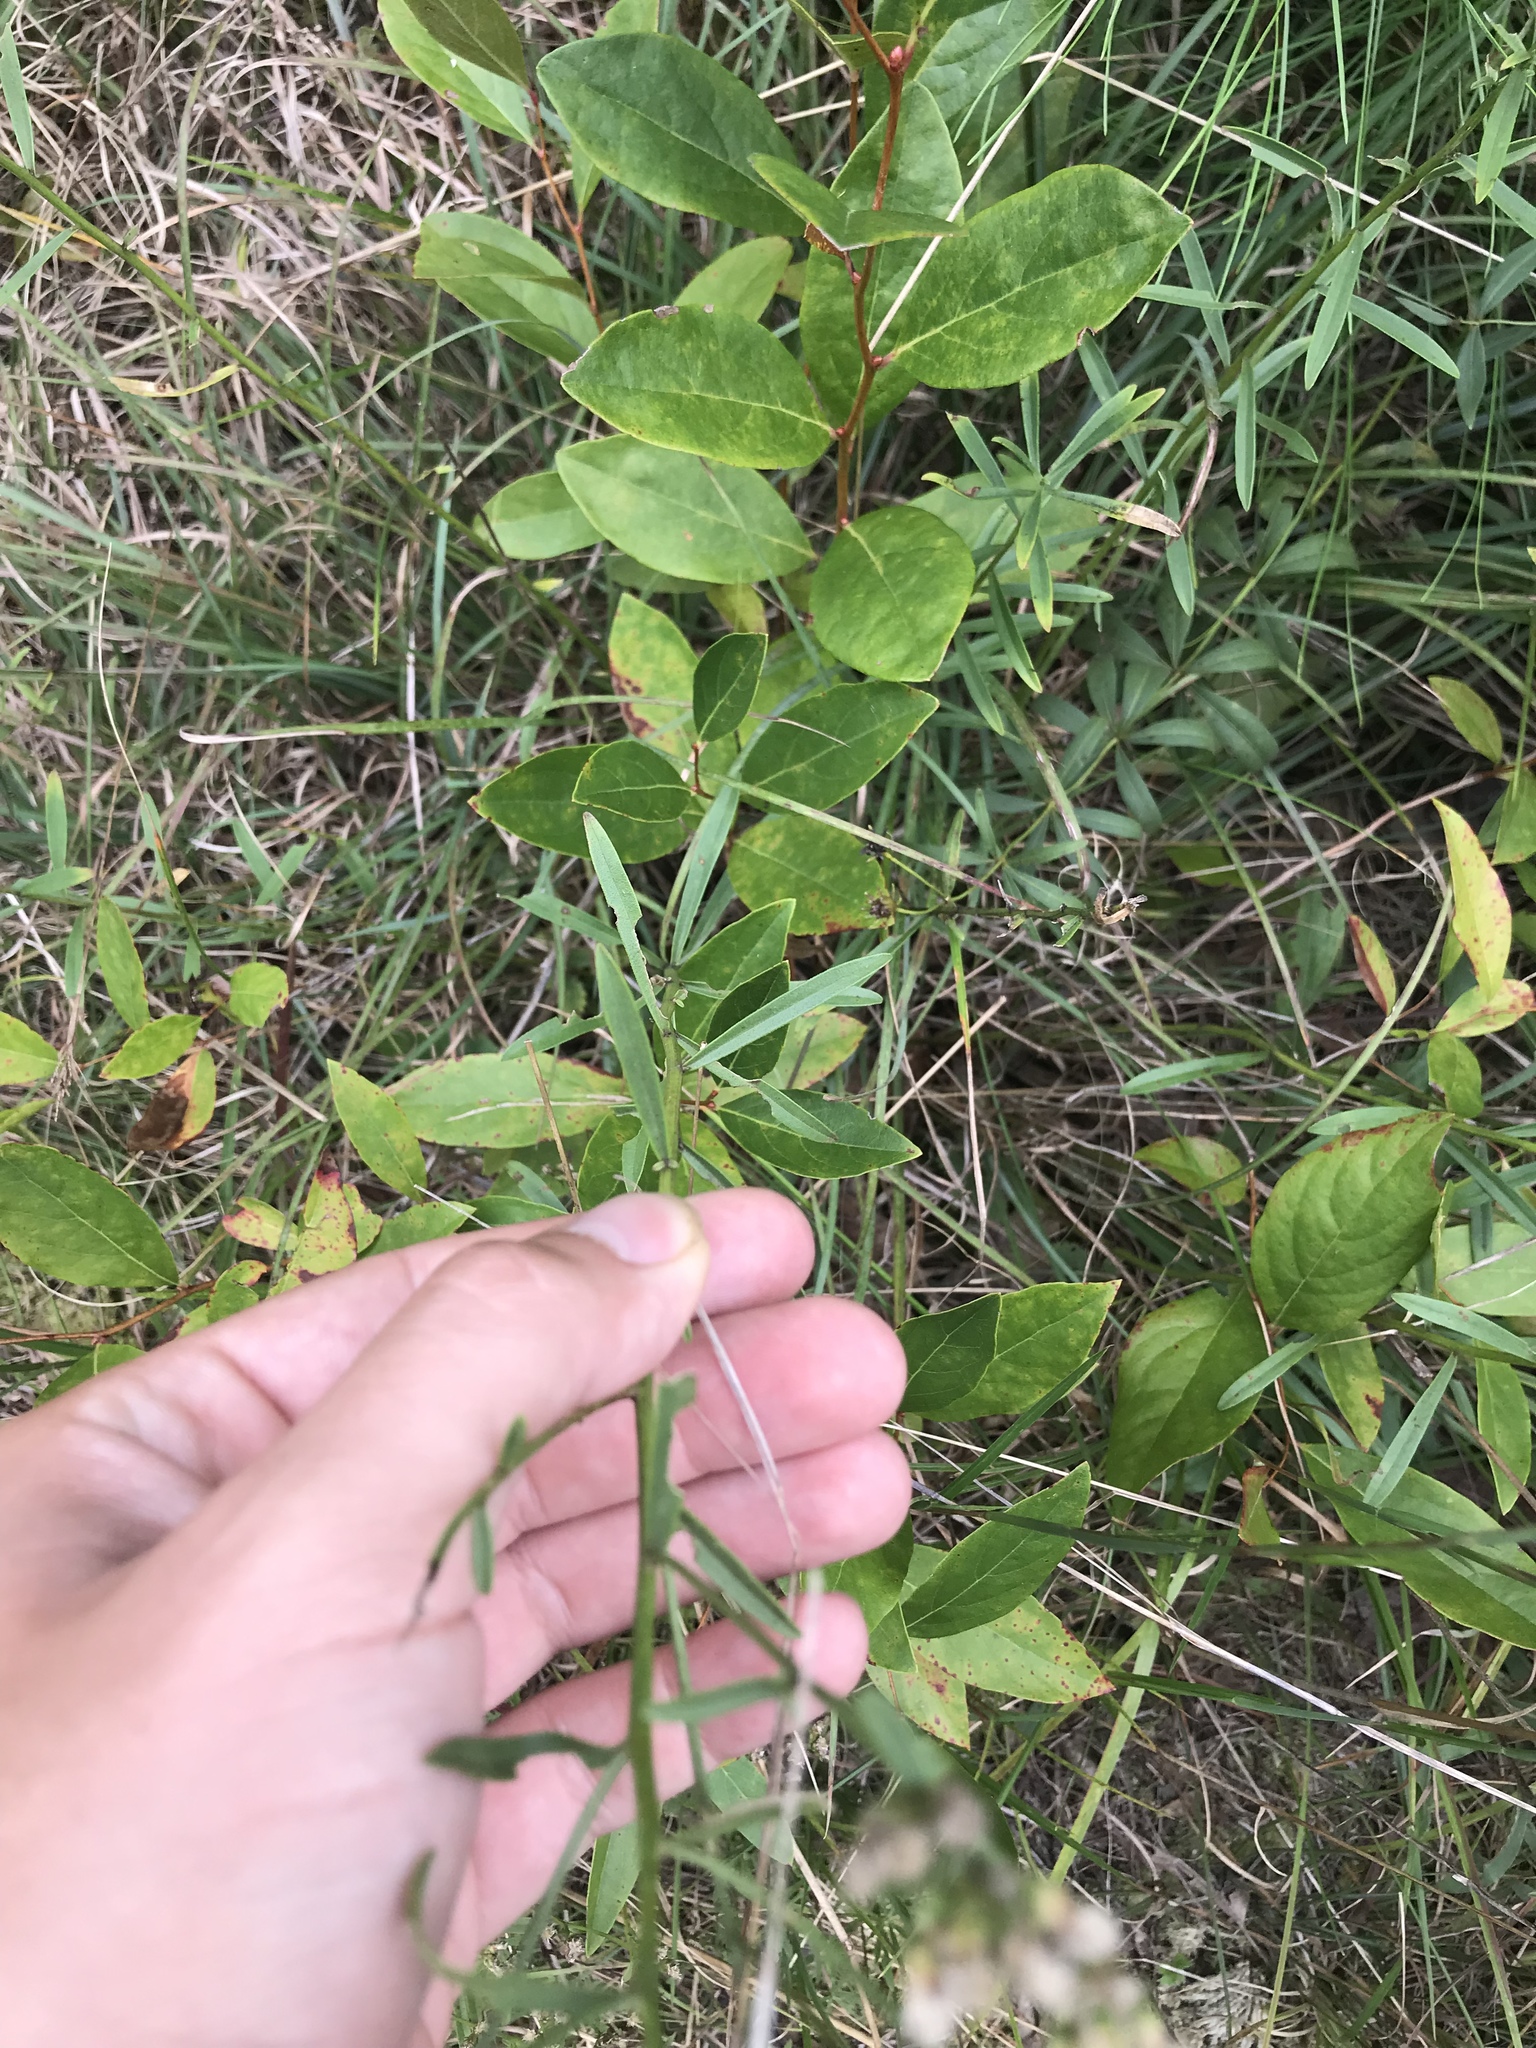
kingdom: Plantae
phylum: Tracheophyta
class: Magnoliopsida
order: Asterales
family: Asteraceae
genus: Sericocarpus
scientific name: Sericocarpus linifolius
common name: Narrow-leaf aster
